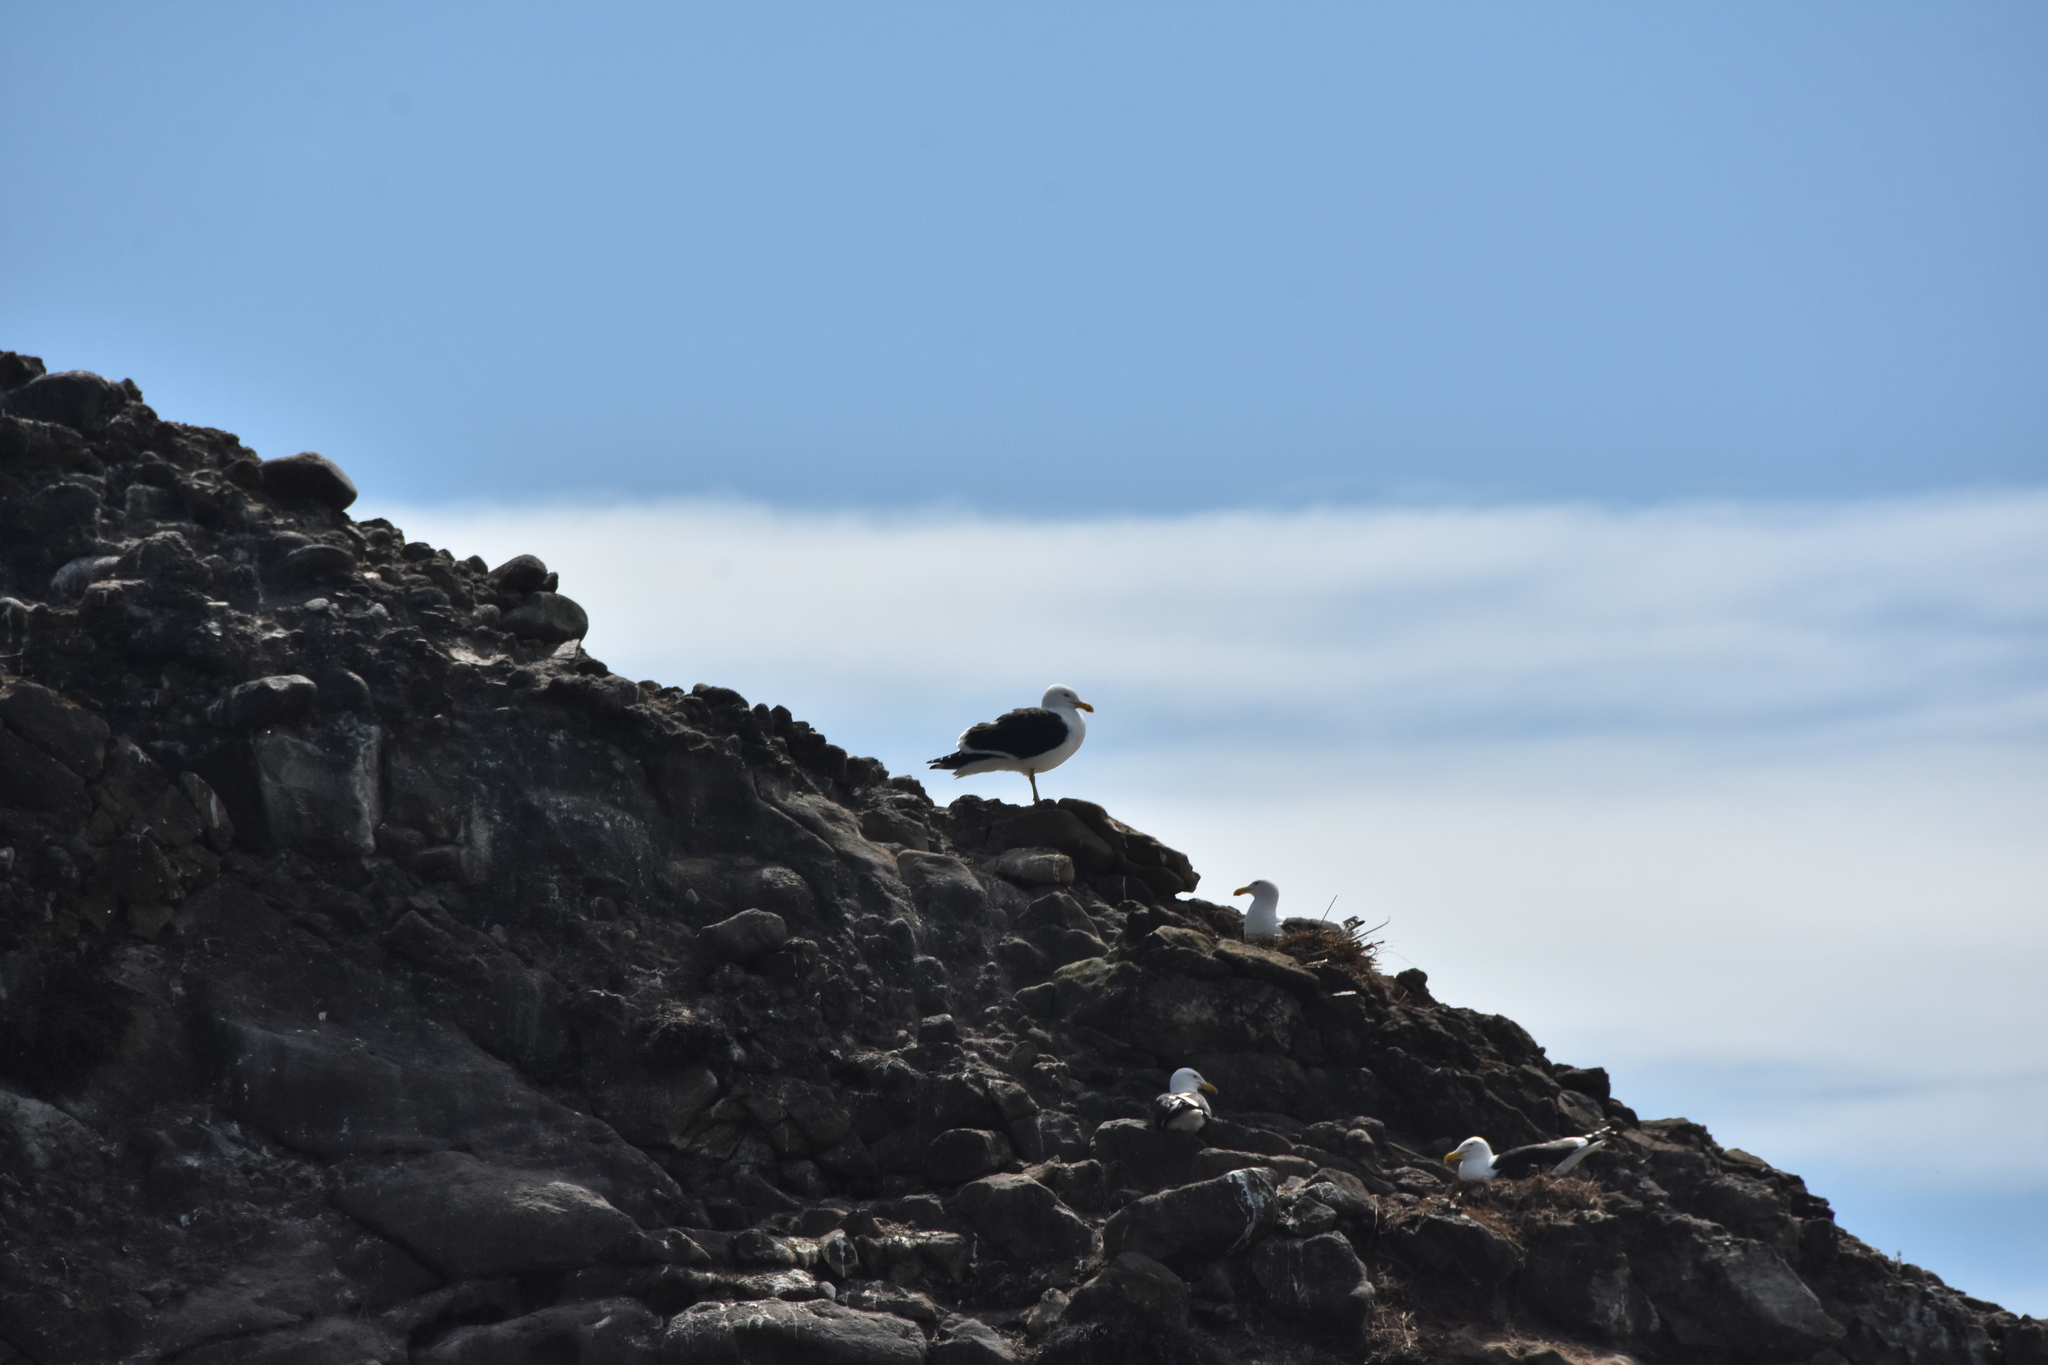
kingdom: Animalia
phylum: Chordata
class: Aves
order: Charadriiformes
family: Laridae
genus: Larus
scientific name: Larus dominicanus
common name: Kelp gull
